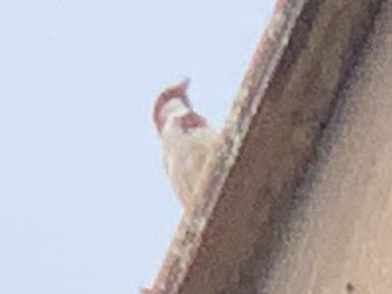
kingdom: Animalia
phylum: Chordata
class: Aves
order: Passeriformes
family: Passeridae
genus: Passer
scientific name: Passer domesticus
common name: House sparrow
